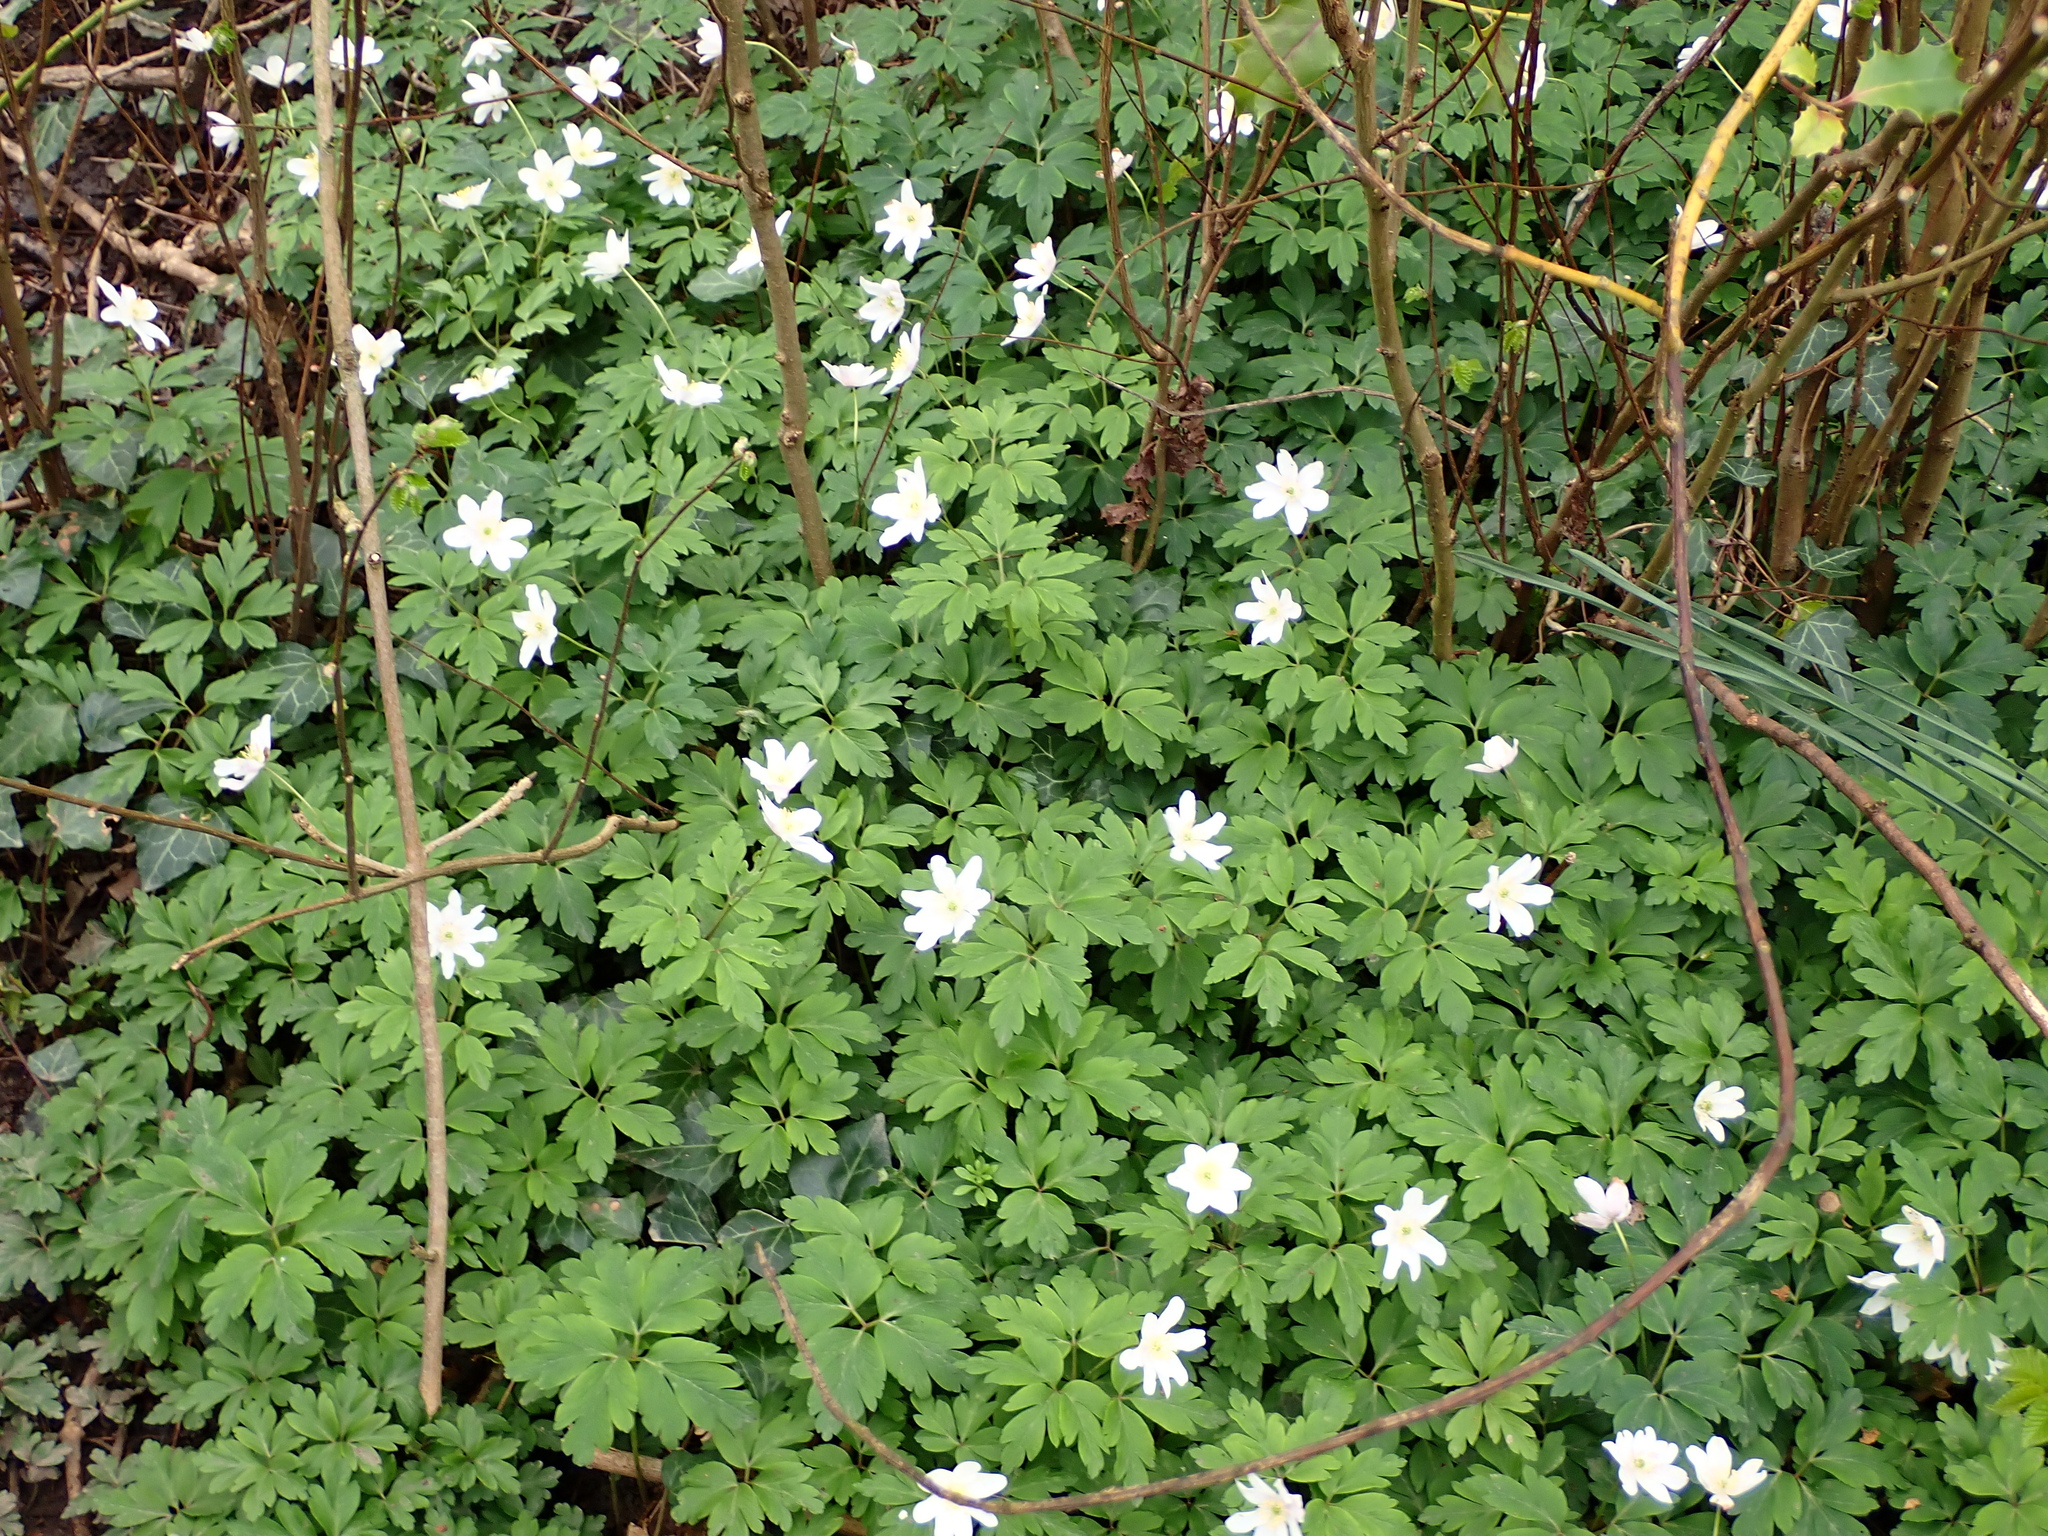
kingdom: Plantae
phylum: Tracheophyta
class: Magnoliopsida
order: Ranunculales
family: Ranunculaceae
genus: Anemone
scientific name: Anemone nemorosa
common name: Wood anemone
